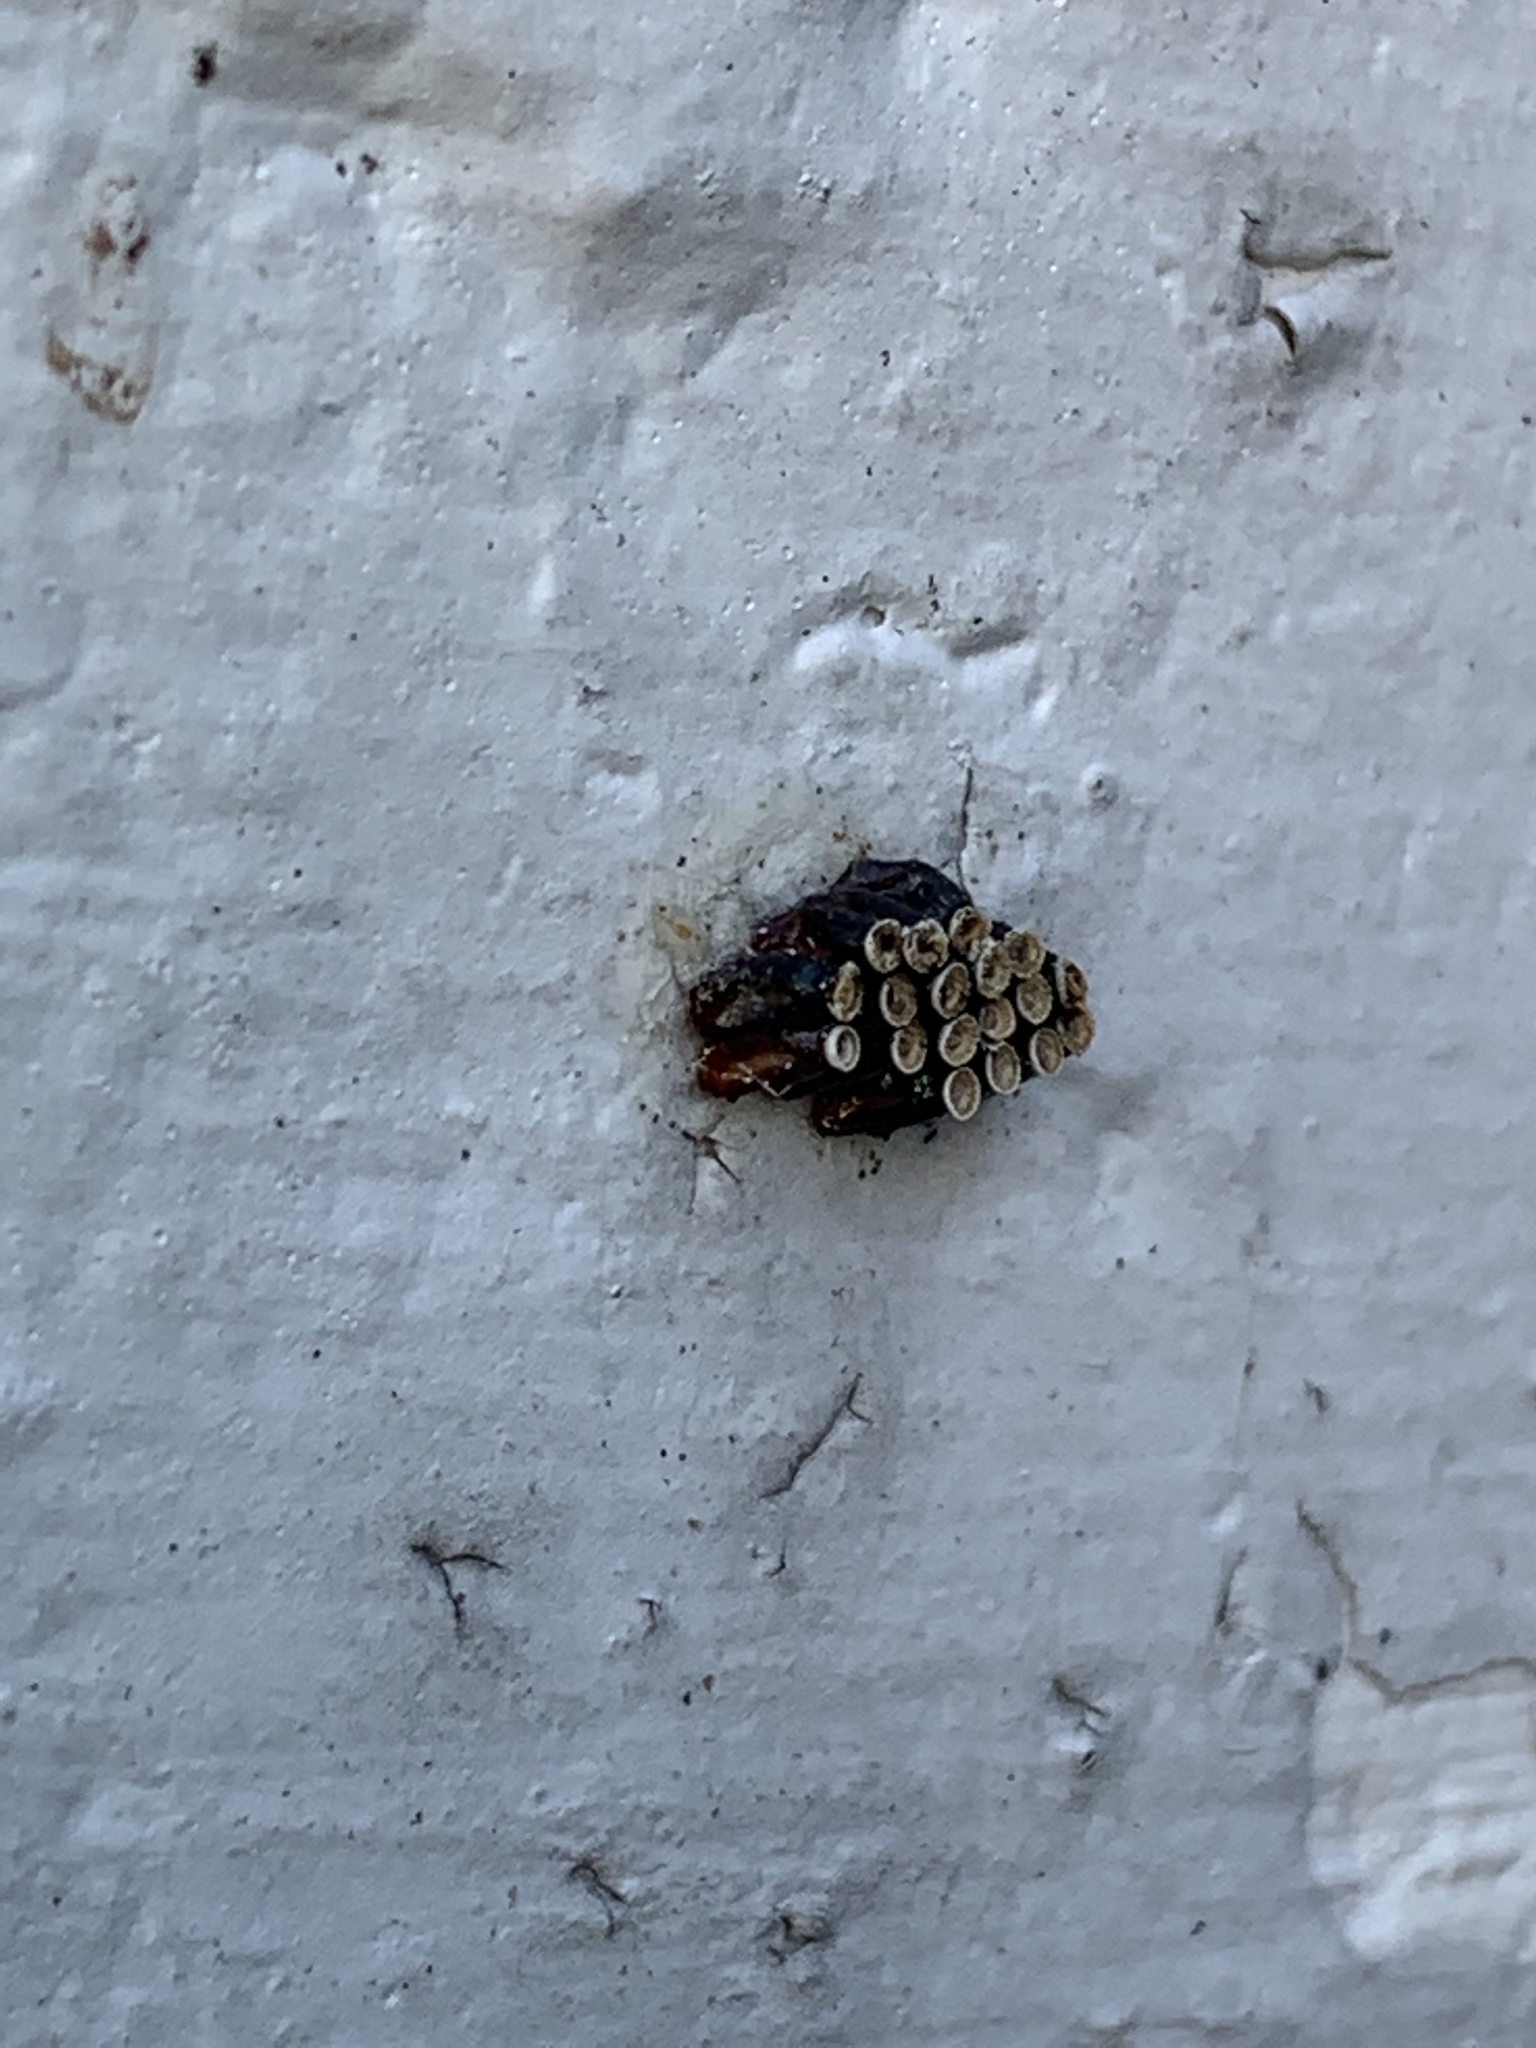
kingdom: Animalia
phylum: Arthropoda
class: Insecta
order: Hemiptera
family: Reduviidae
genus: Arilus
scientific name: Arilus cristatus
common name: North american wheel bug
